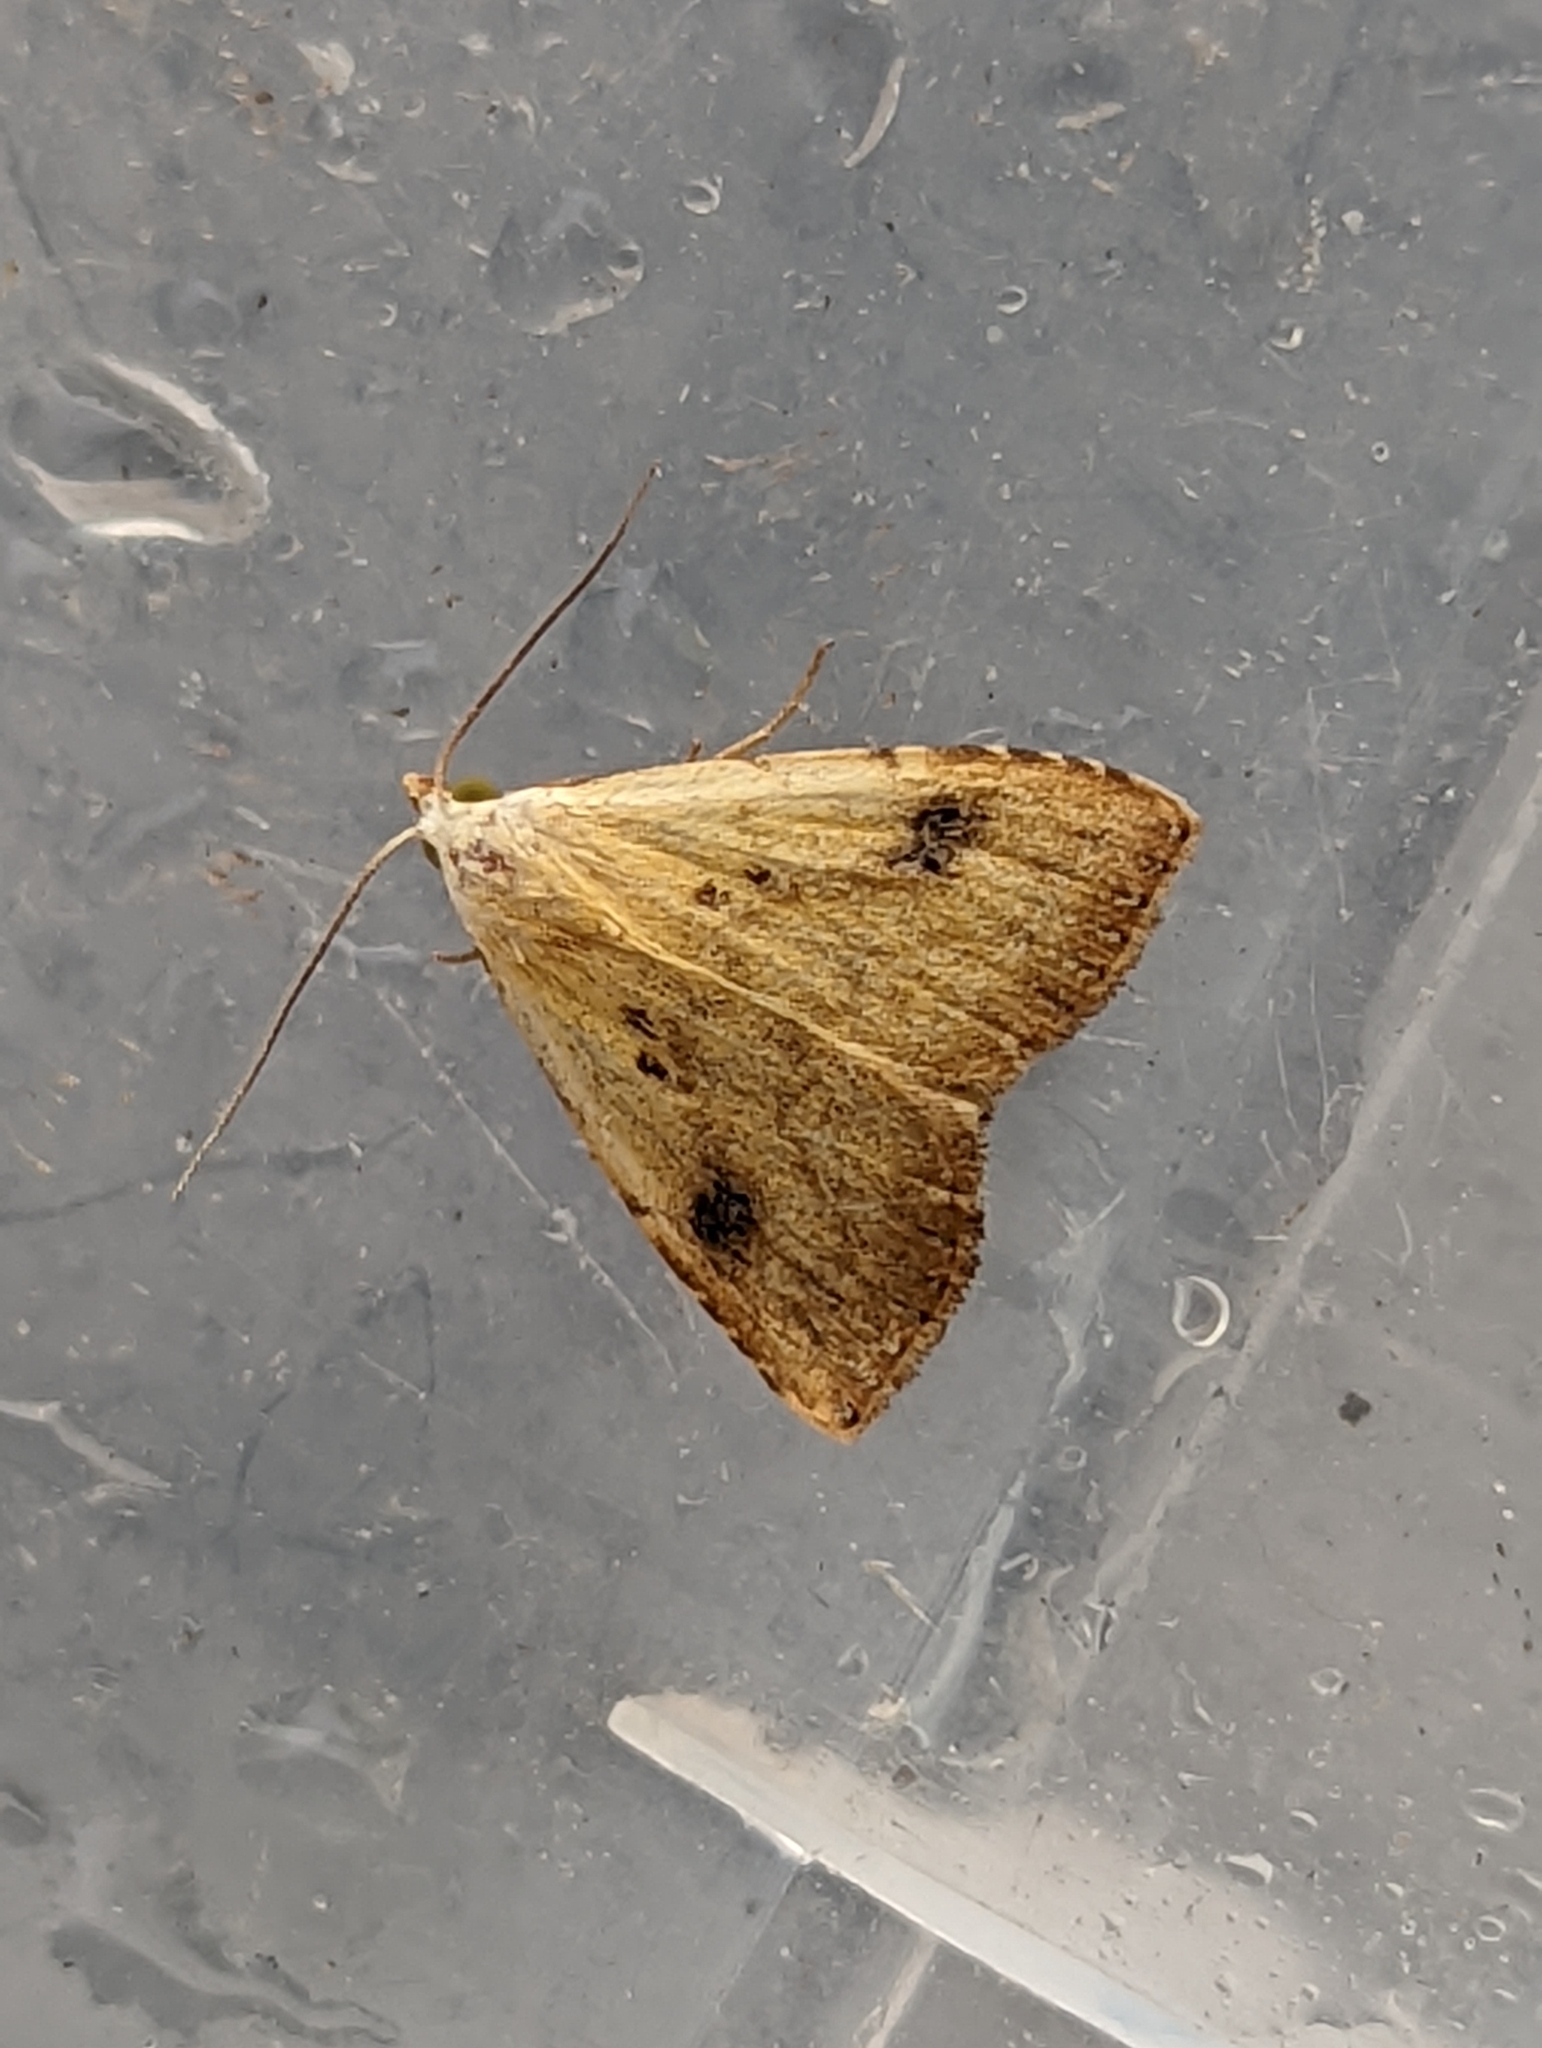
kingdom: Animalia
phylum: Arthropoda
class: Insecta
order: Lepidoptera
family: Erebidae
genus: Rivula
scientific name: Rivula sericealis
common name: Straw dot
